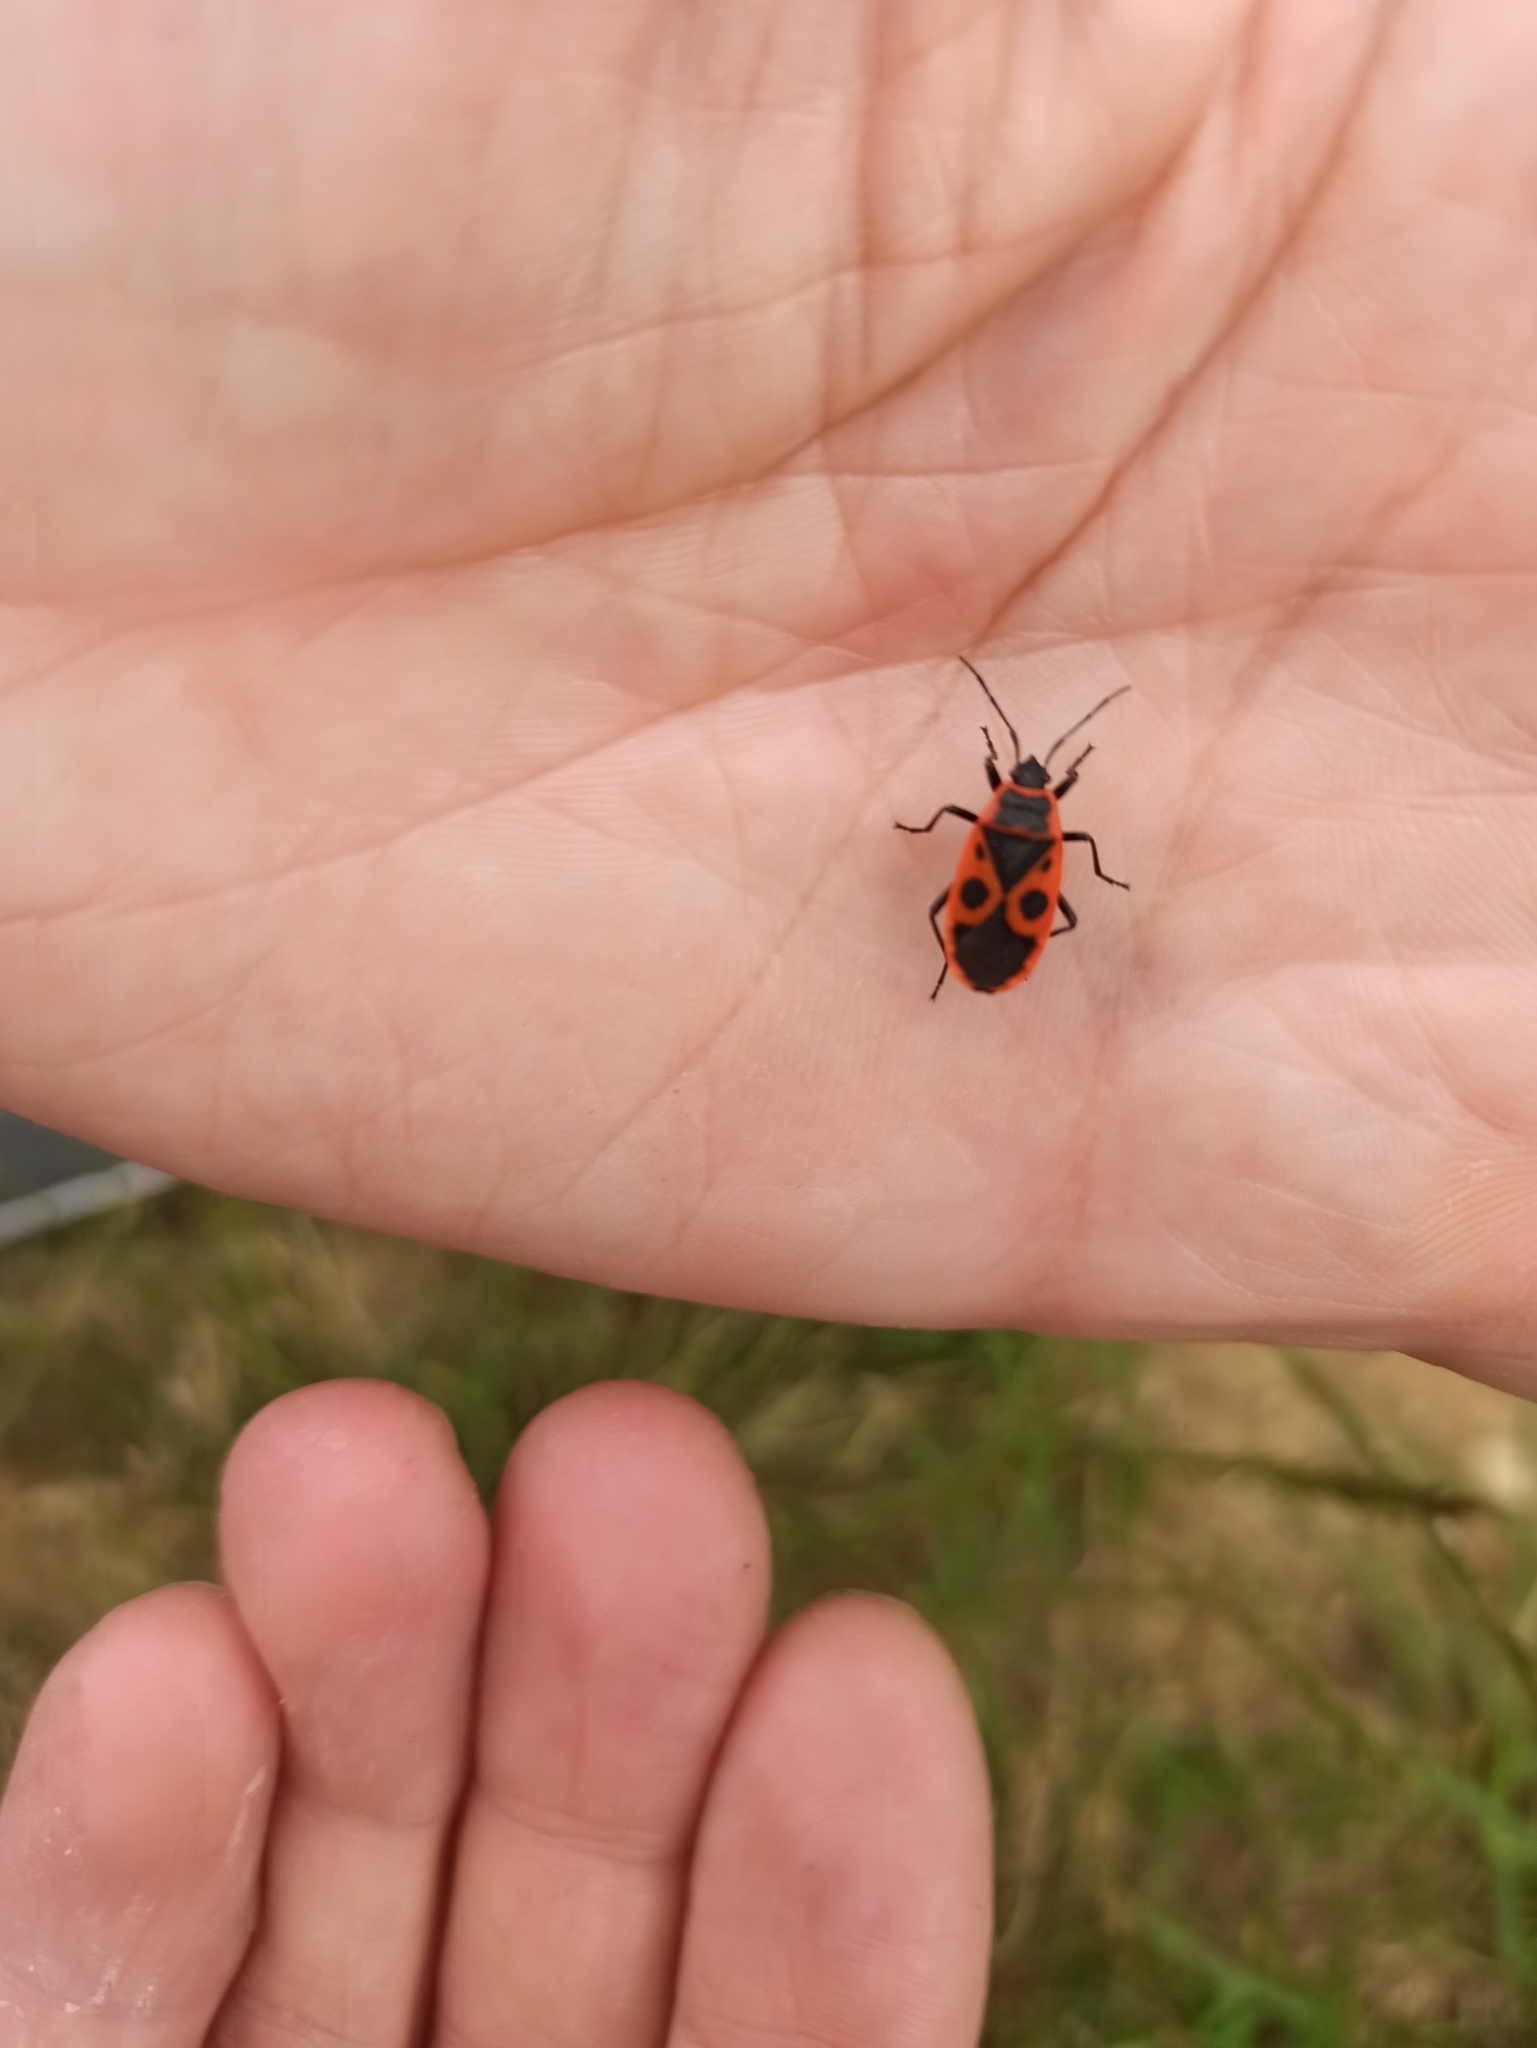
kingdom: Animalia
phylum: Arthropoda
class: Insecta
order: Hemiptera
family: Pyrrhocoridae
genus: Pyrrhocoris
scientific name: Pyrrhocoris apterus
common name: Firebug
